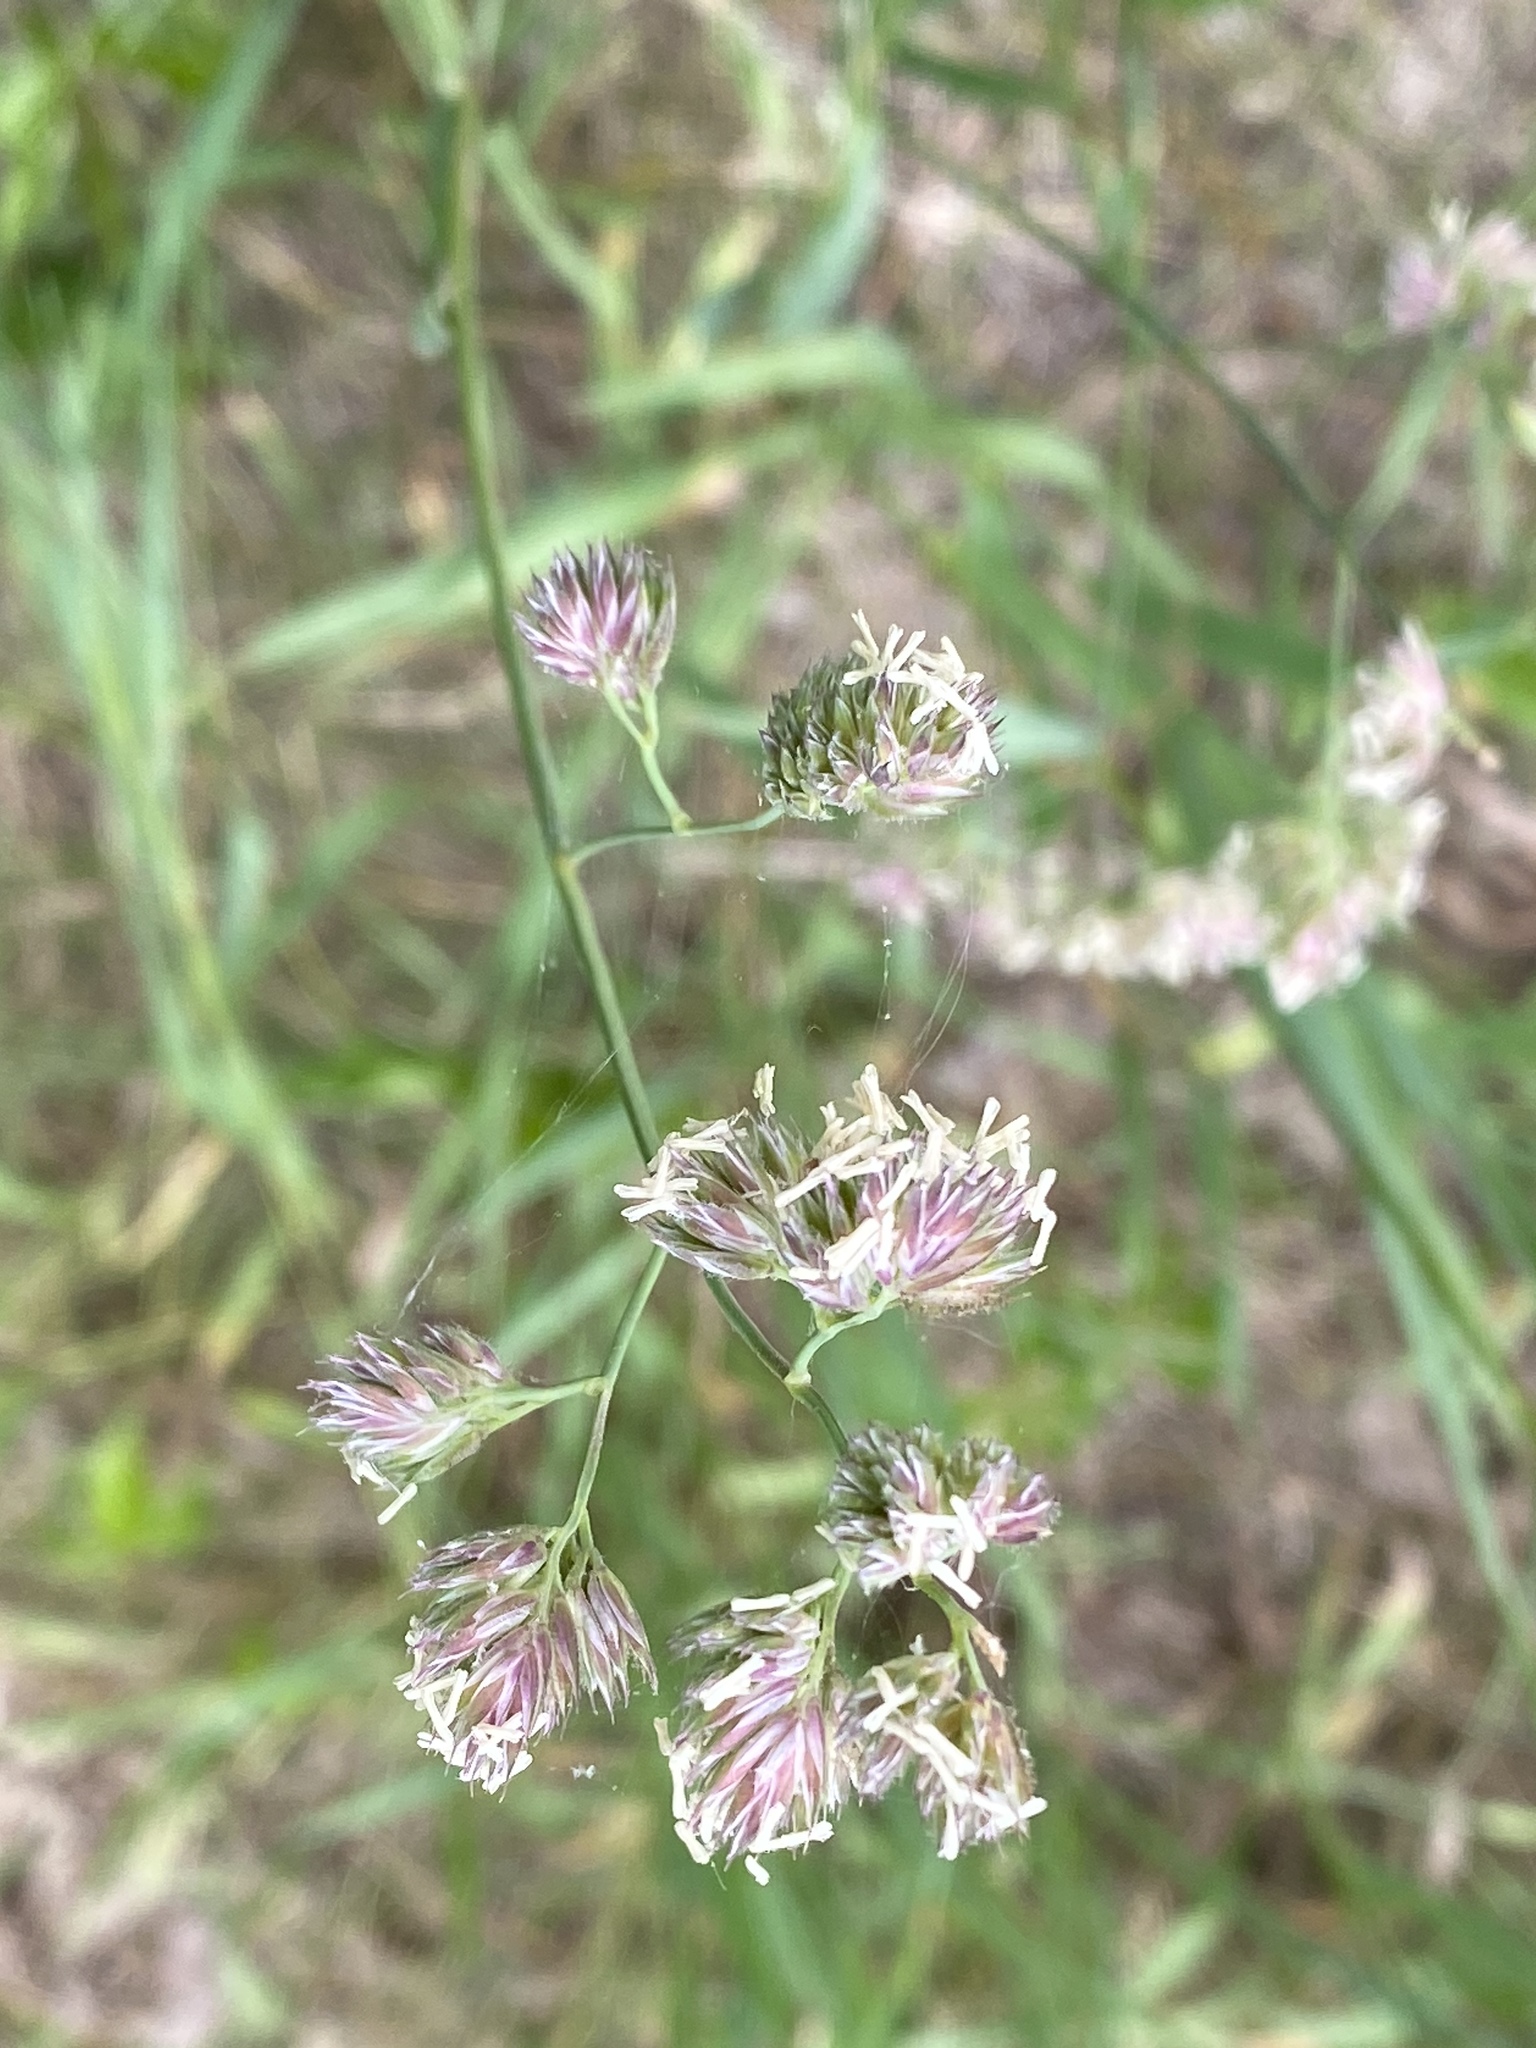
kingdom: Plantae
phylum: Tracheophyta
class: Liliopsida
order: Poales
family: Poaceae
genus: Dactylis
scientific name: Dactylis glomerata
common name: Orchardgrass
